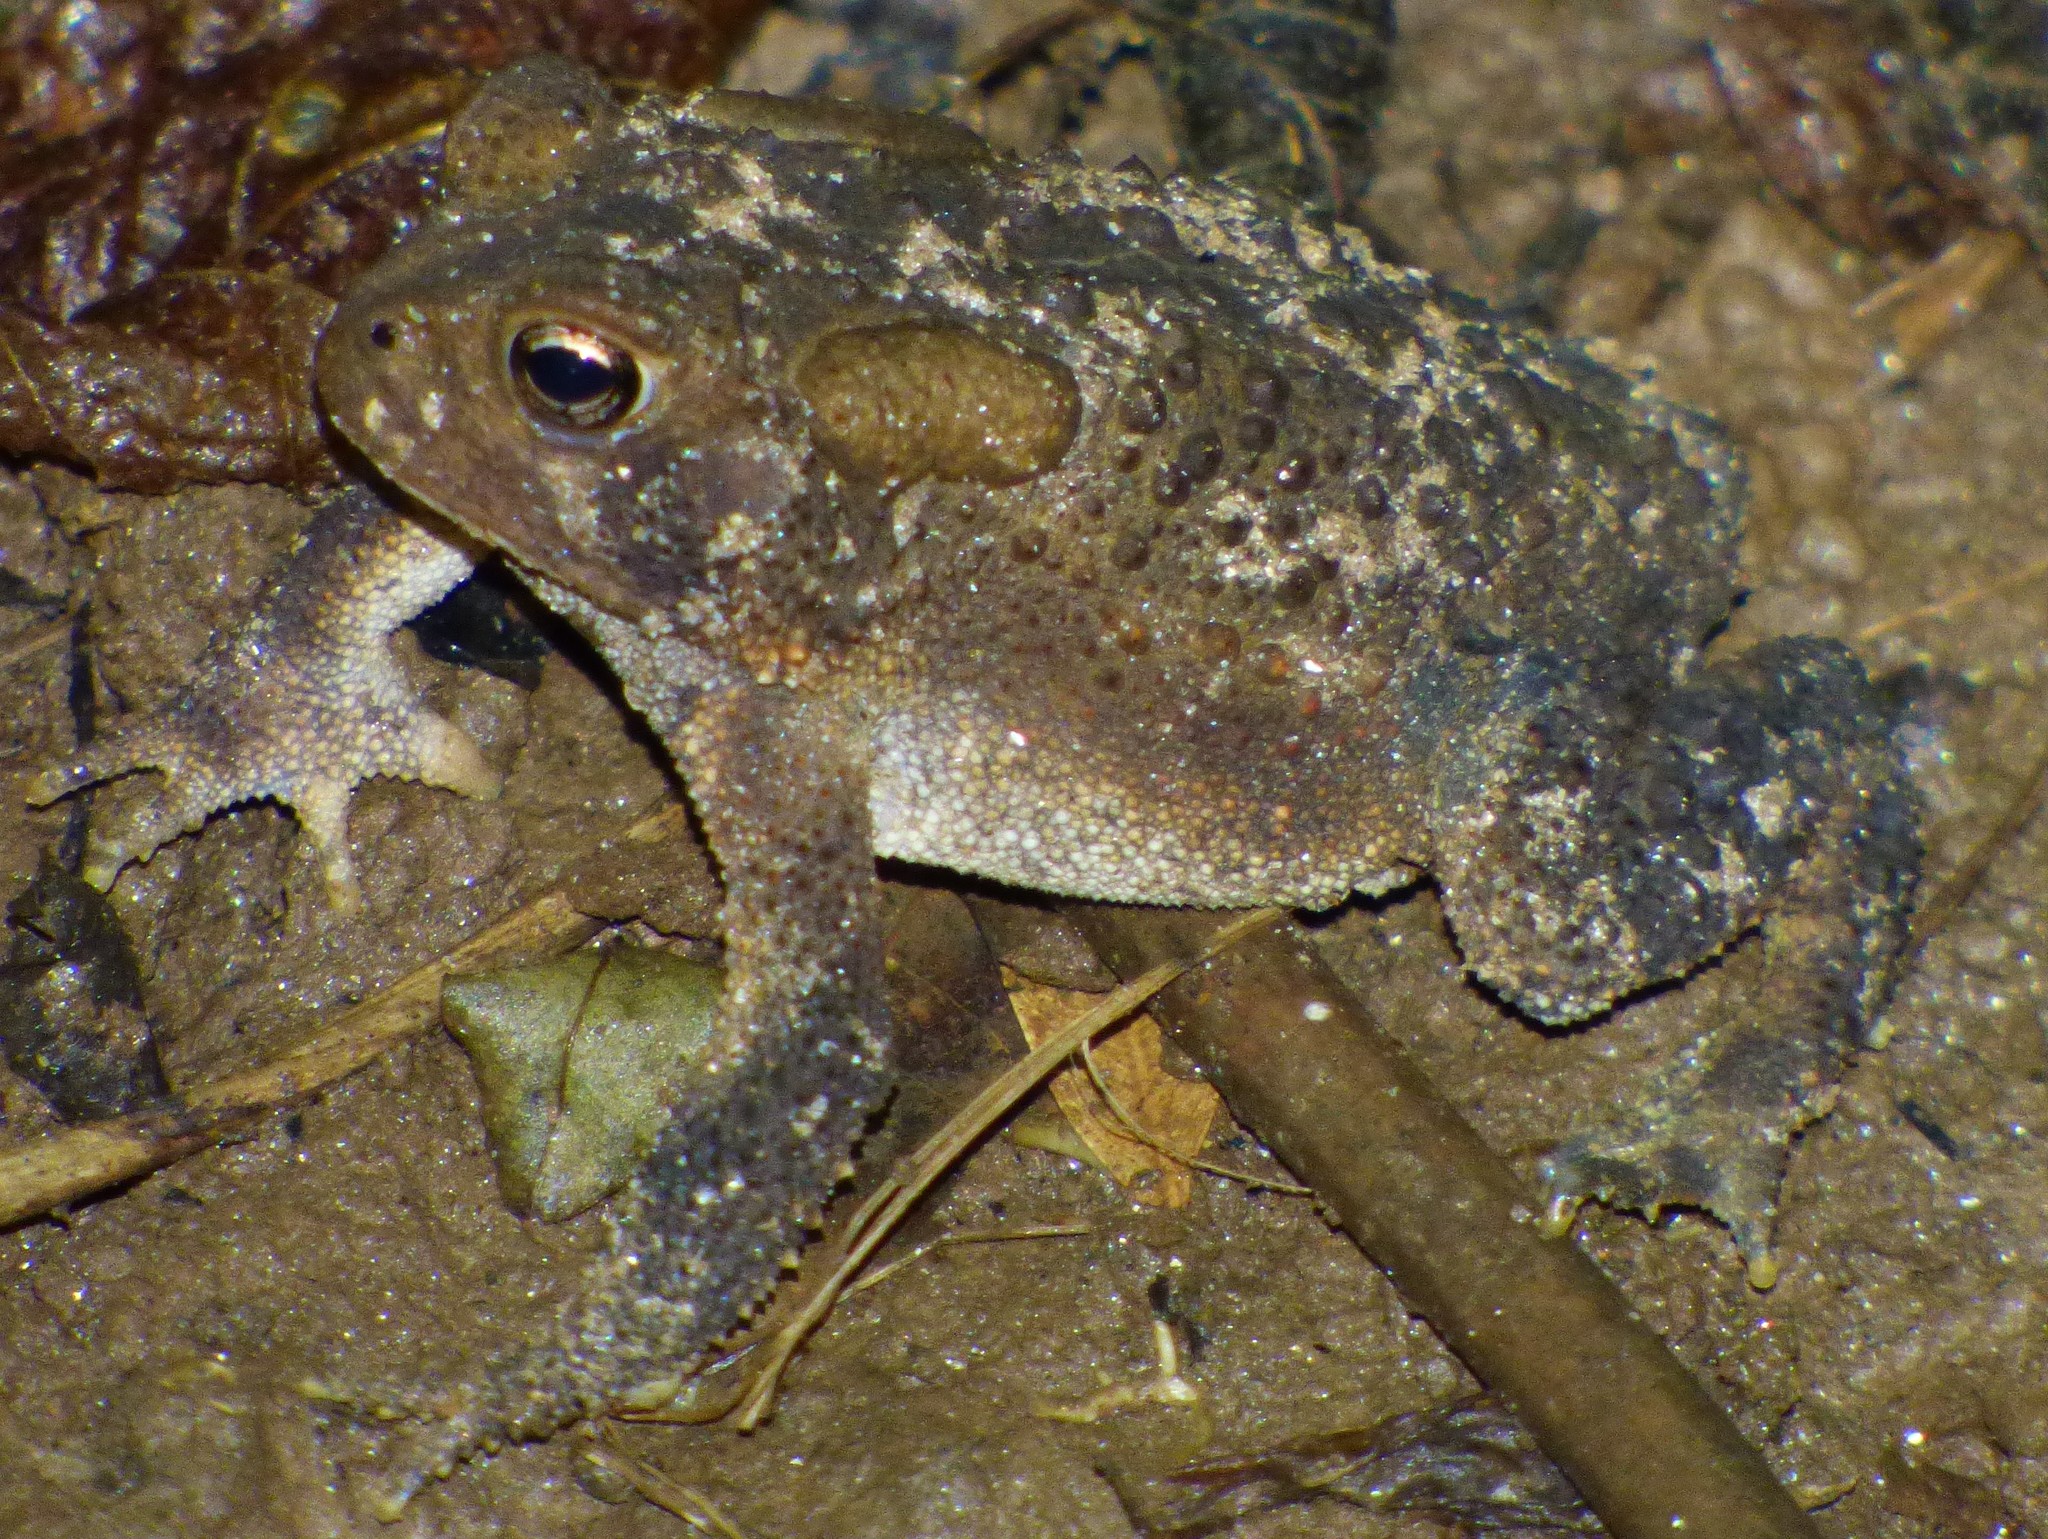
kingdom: Animalia
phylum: Chordata
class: Amphibia
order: Anura
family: Bufonidae
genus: Anaxyrus
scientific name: Anaxyrus americanus
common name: American toad
